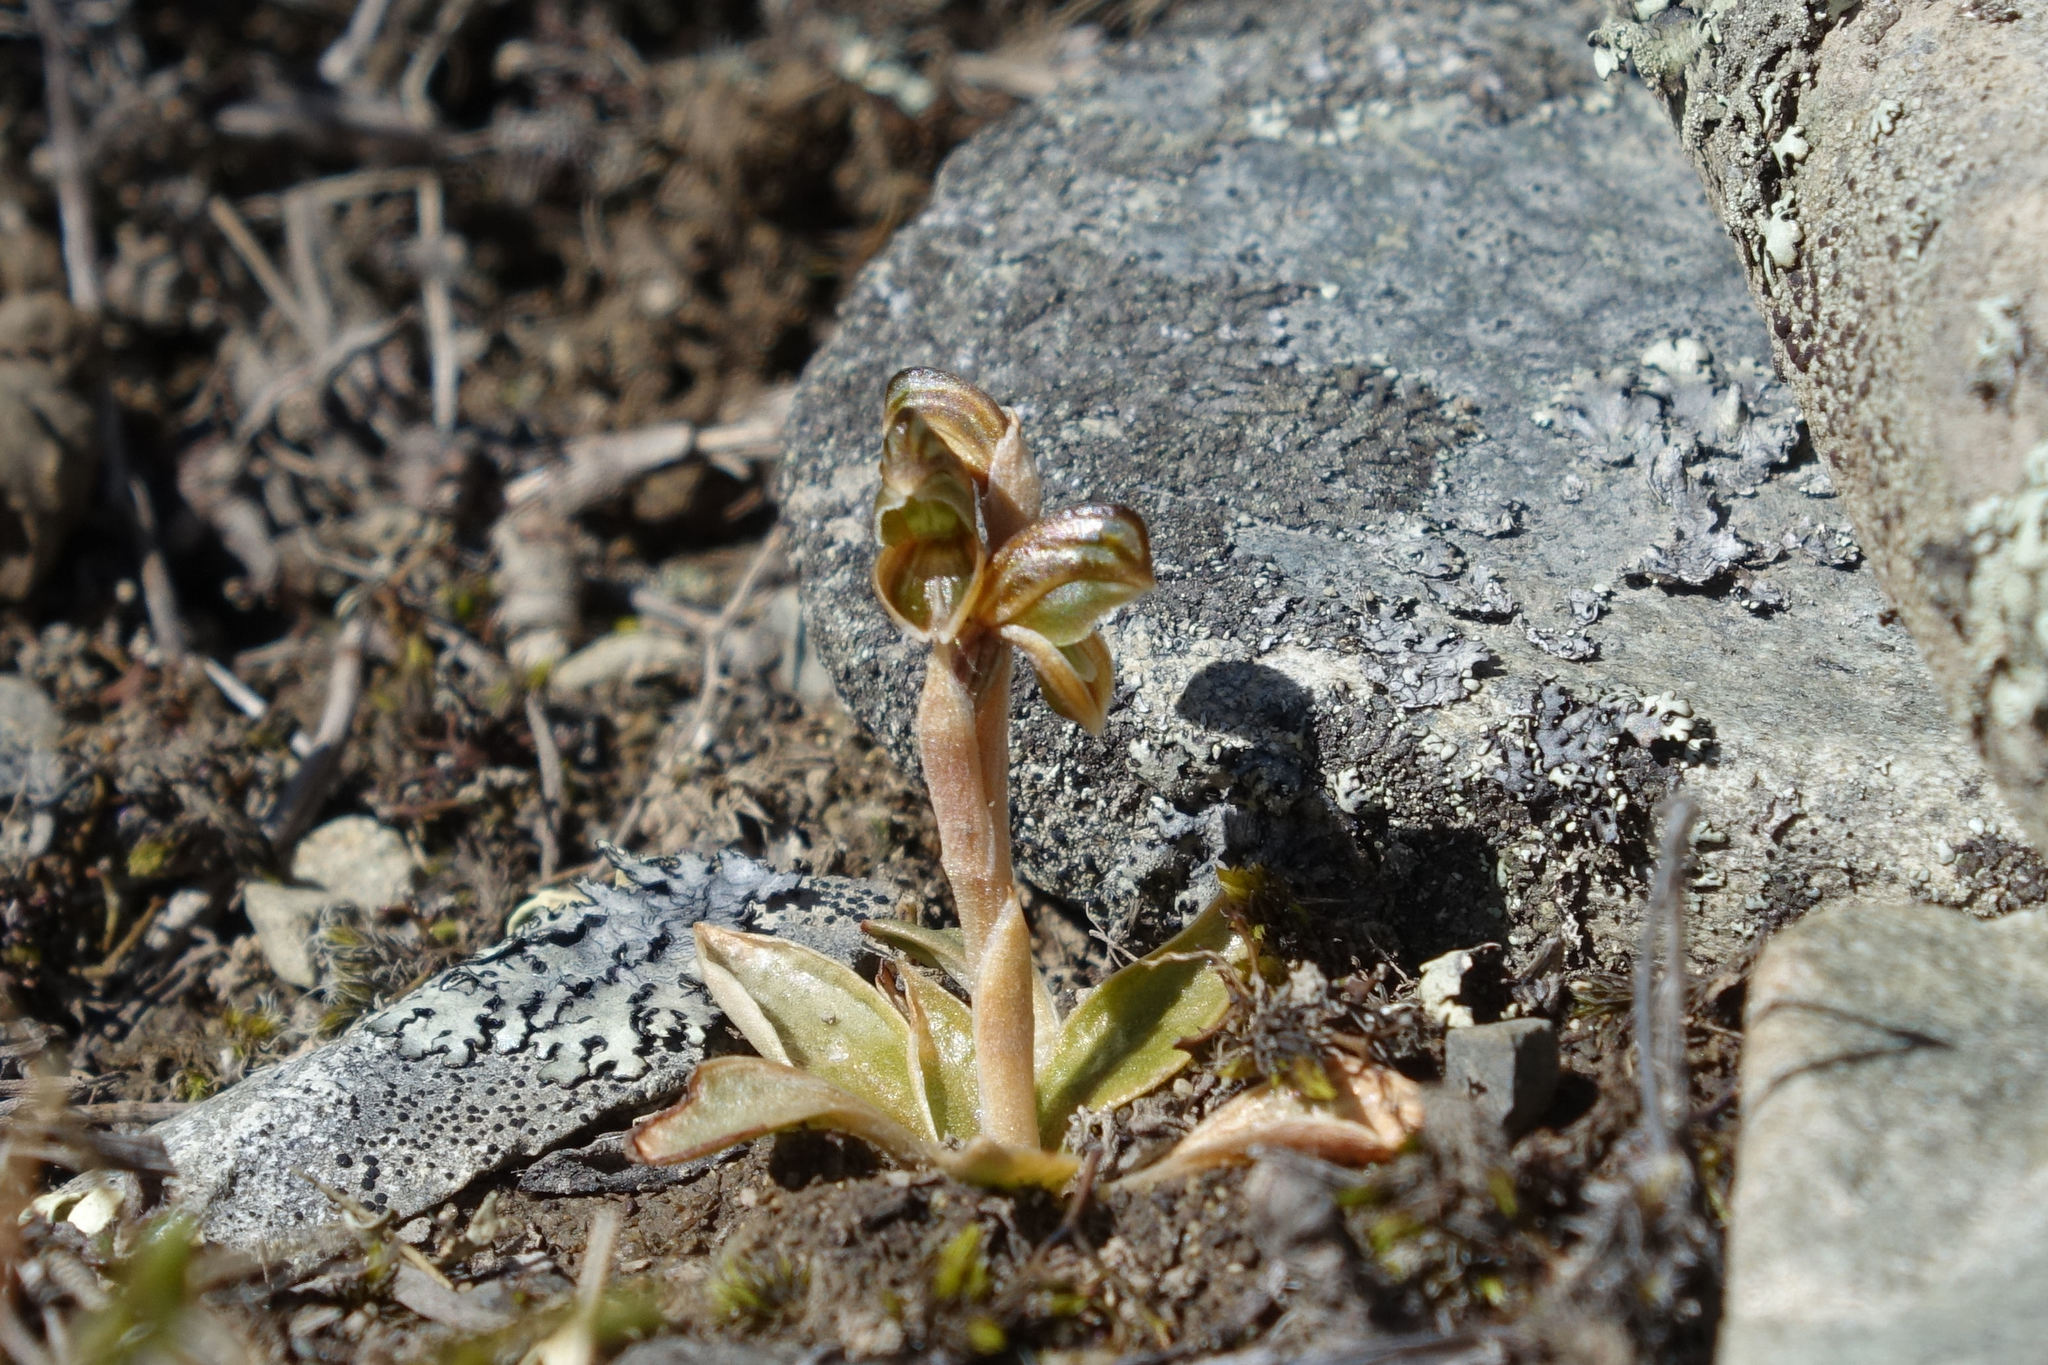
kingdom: Plantae
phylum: Tracheophyta
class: Liliopsida
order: Asparagales
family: Orchidaceae
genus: Pterostylis
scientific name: Pterostylis tristis
